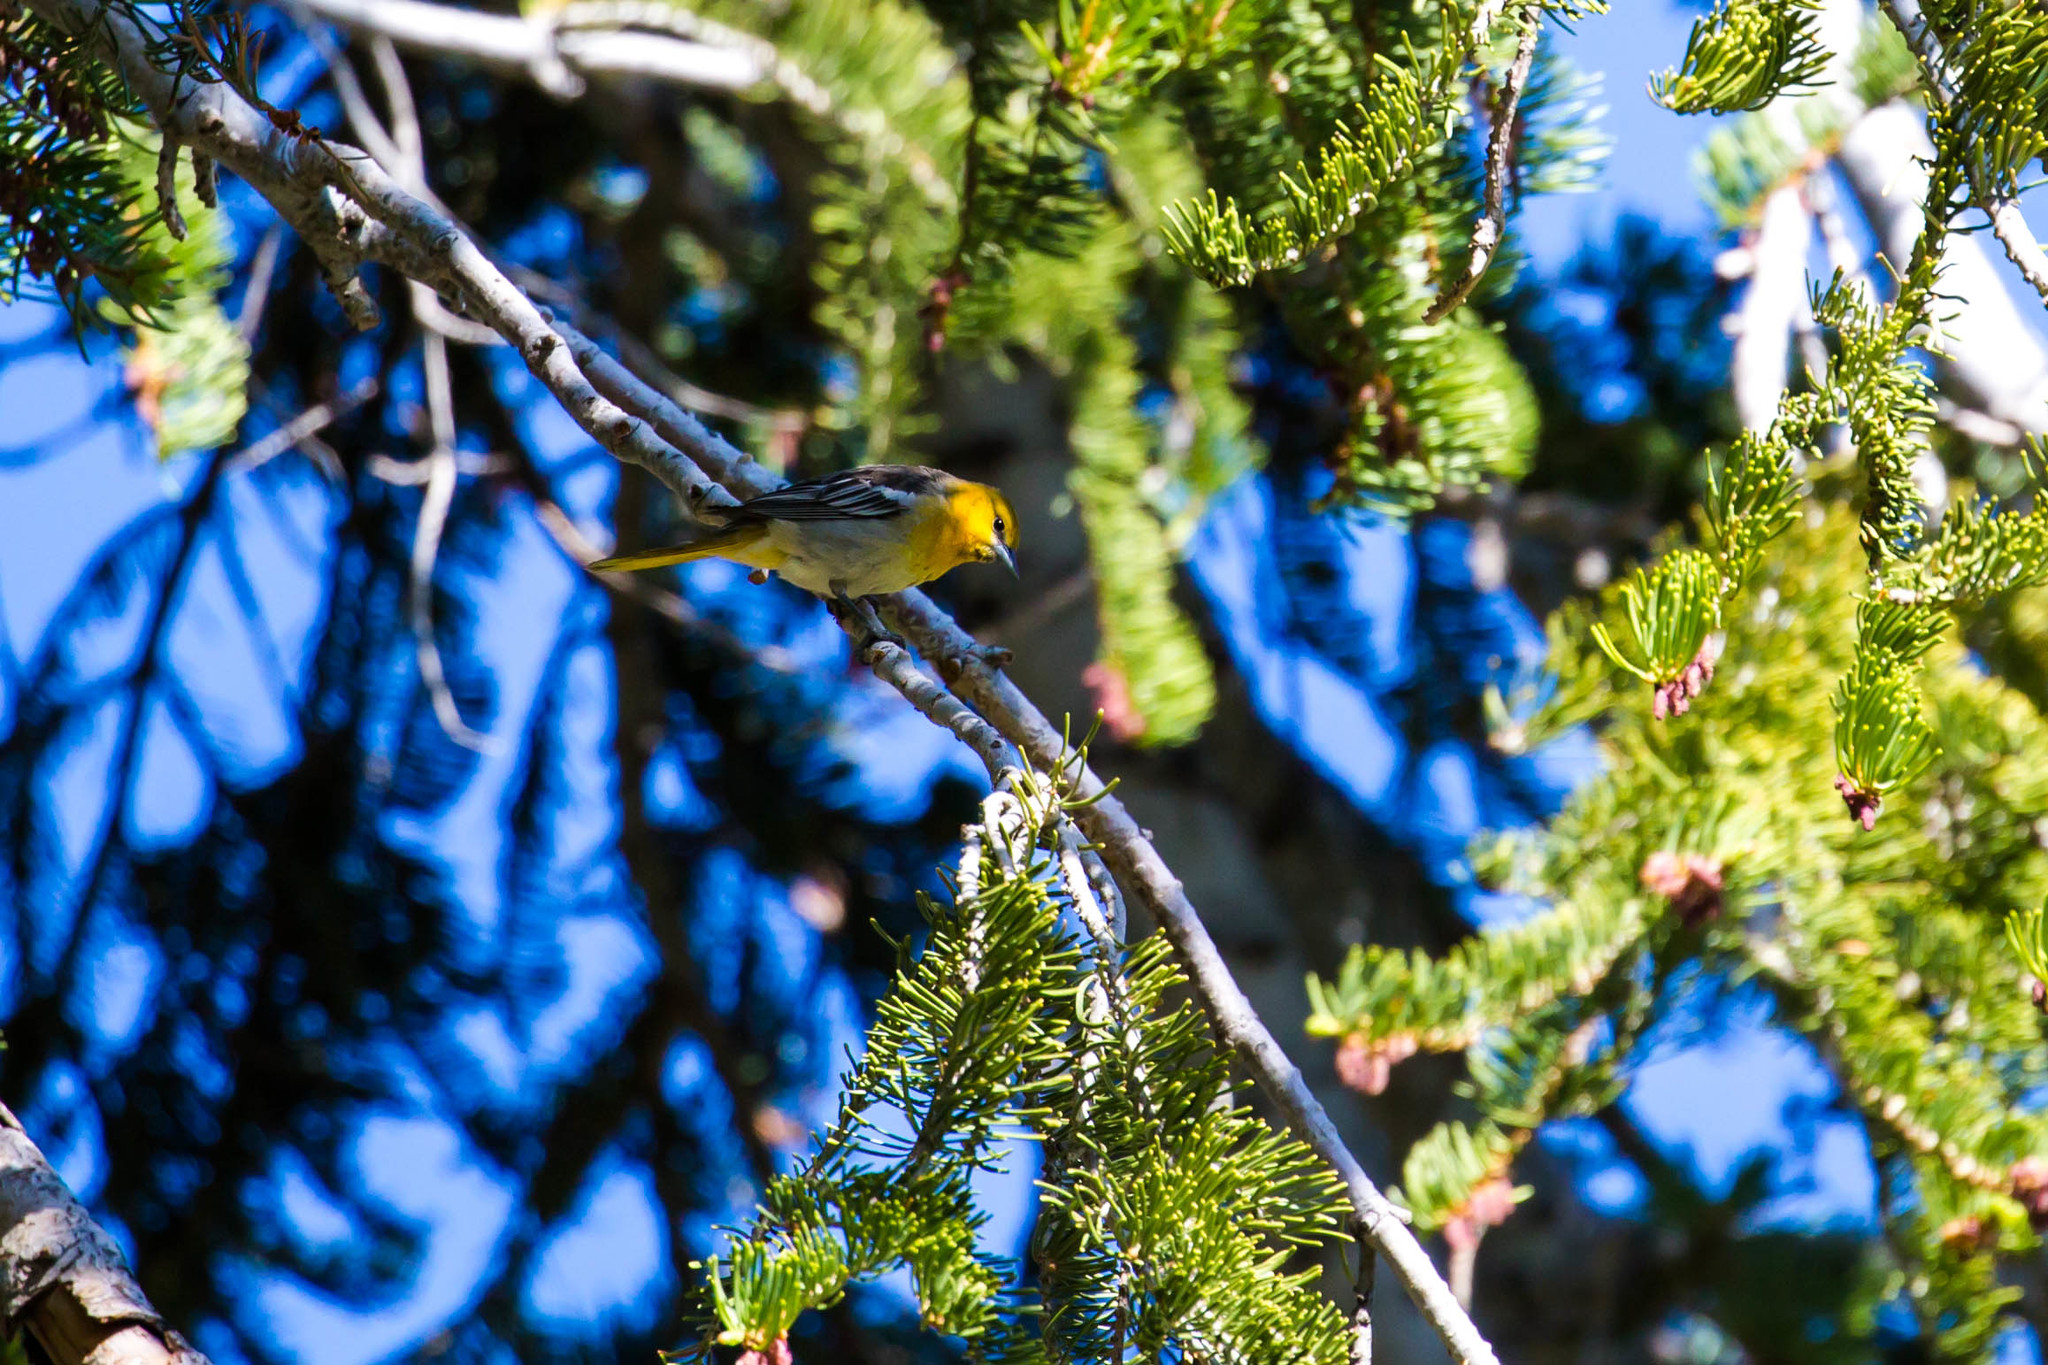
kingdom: Animalia
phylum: Chordata
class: Aves
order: Passeriformes
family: Icteridae
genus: Icterus
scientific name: Icterus bullockii
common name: Bullock's oriole
